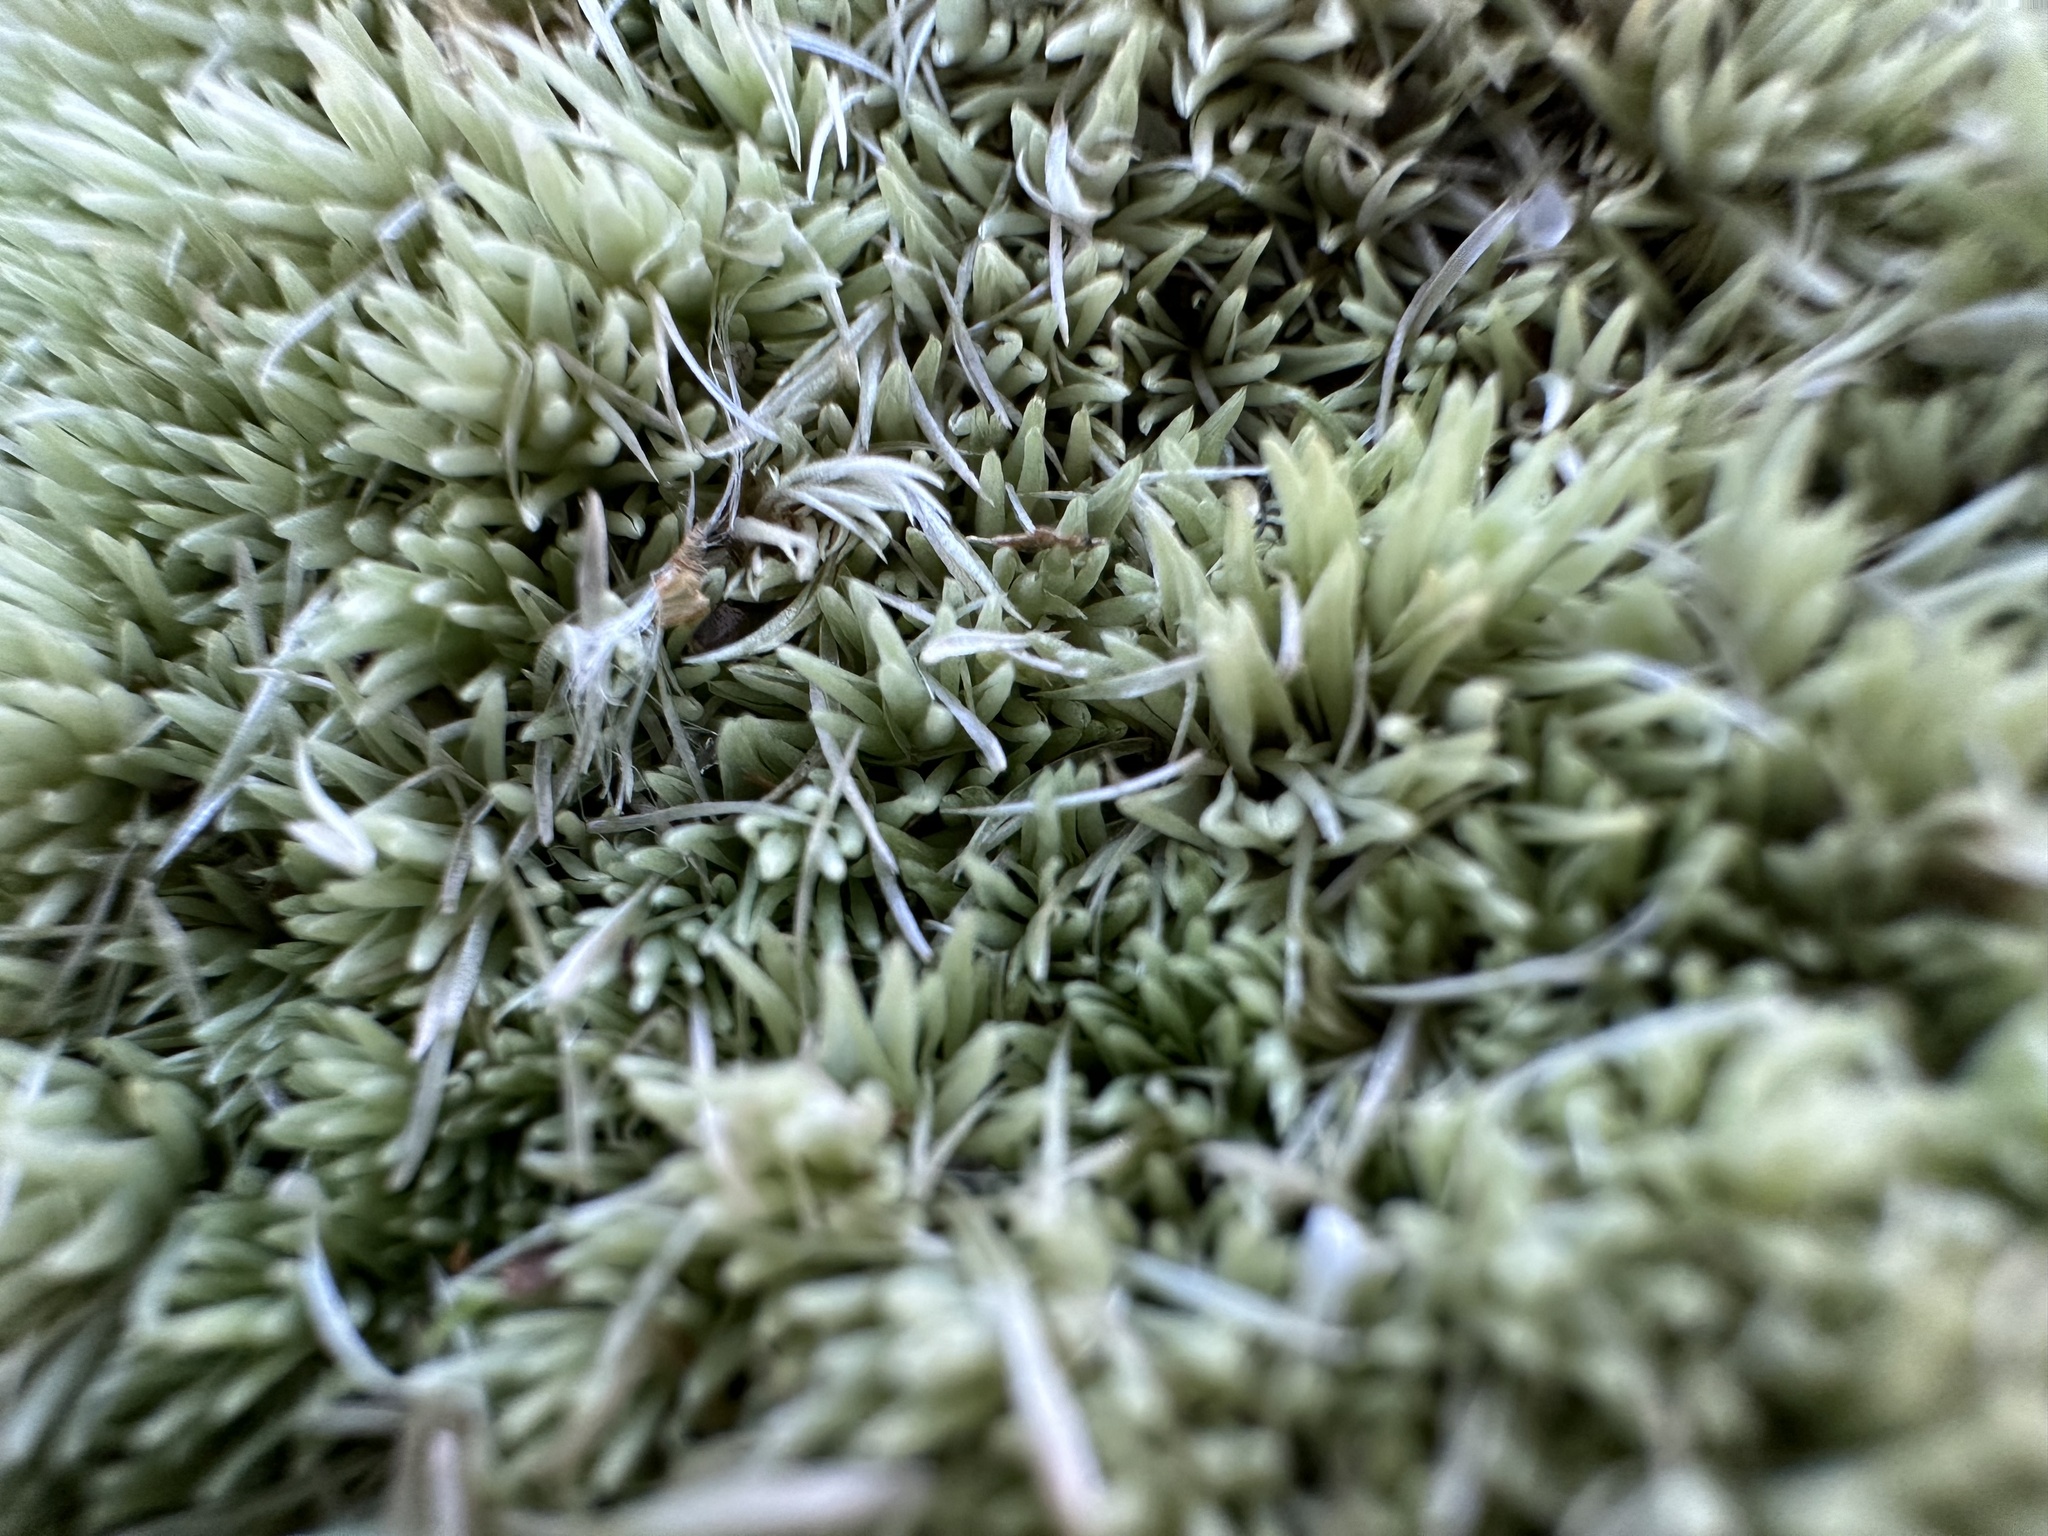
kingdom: Plantae
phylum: Bryophyta
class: Bryopsida
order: Dicranales
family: Leucobryaceae
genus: Leucobryum
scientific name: Leucobryum glaucum
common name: Large white-moss
